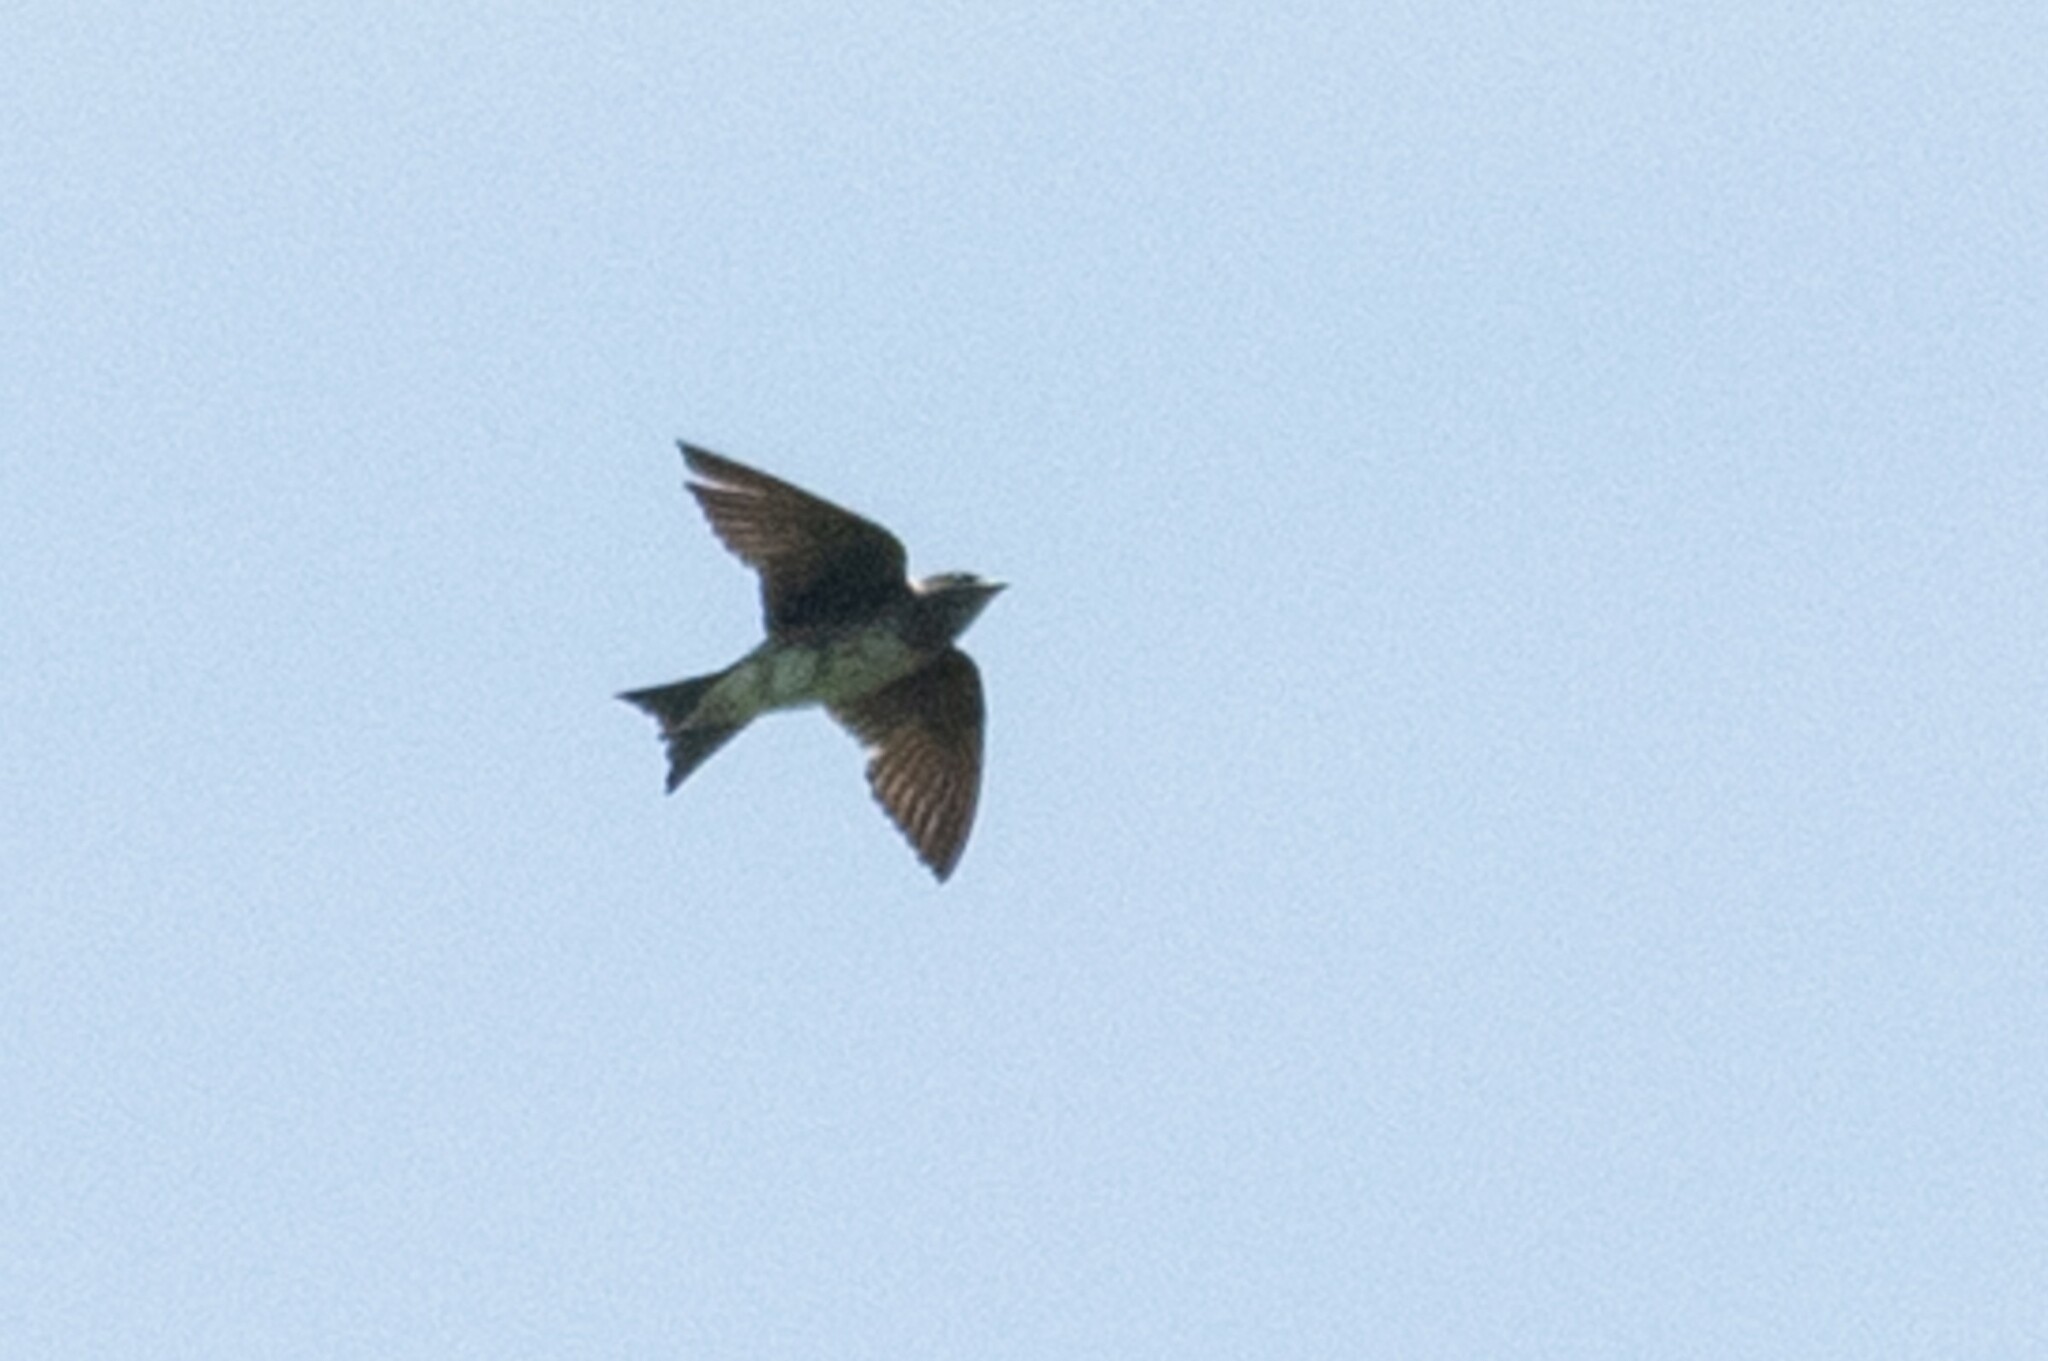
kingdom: Animalia
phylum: Chordata
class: Aves
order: Passeriformes
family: Hirundinidae
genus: Progne
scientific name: Progne subis
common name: Purple martin
